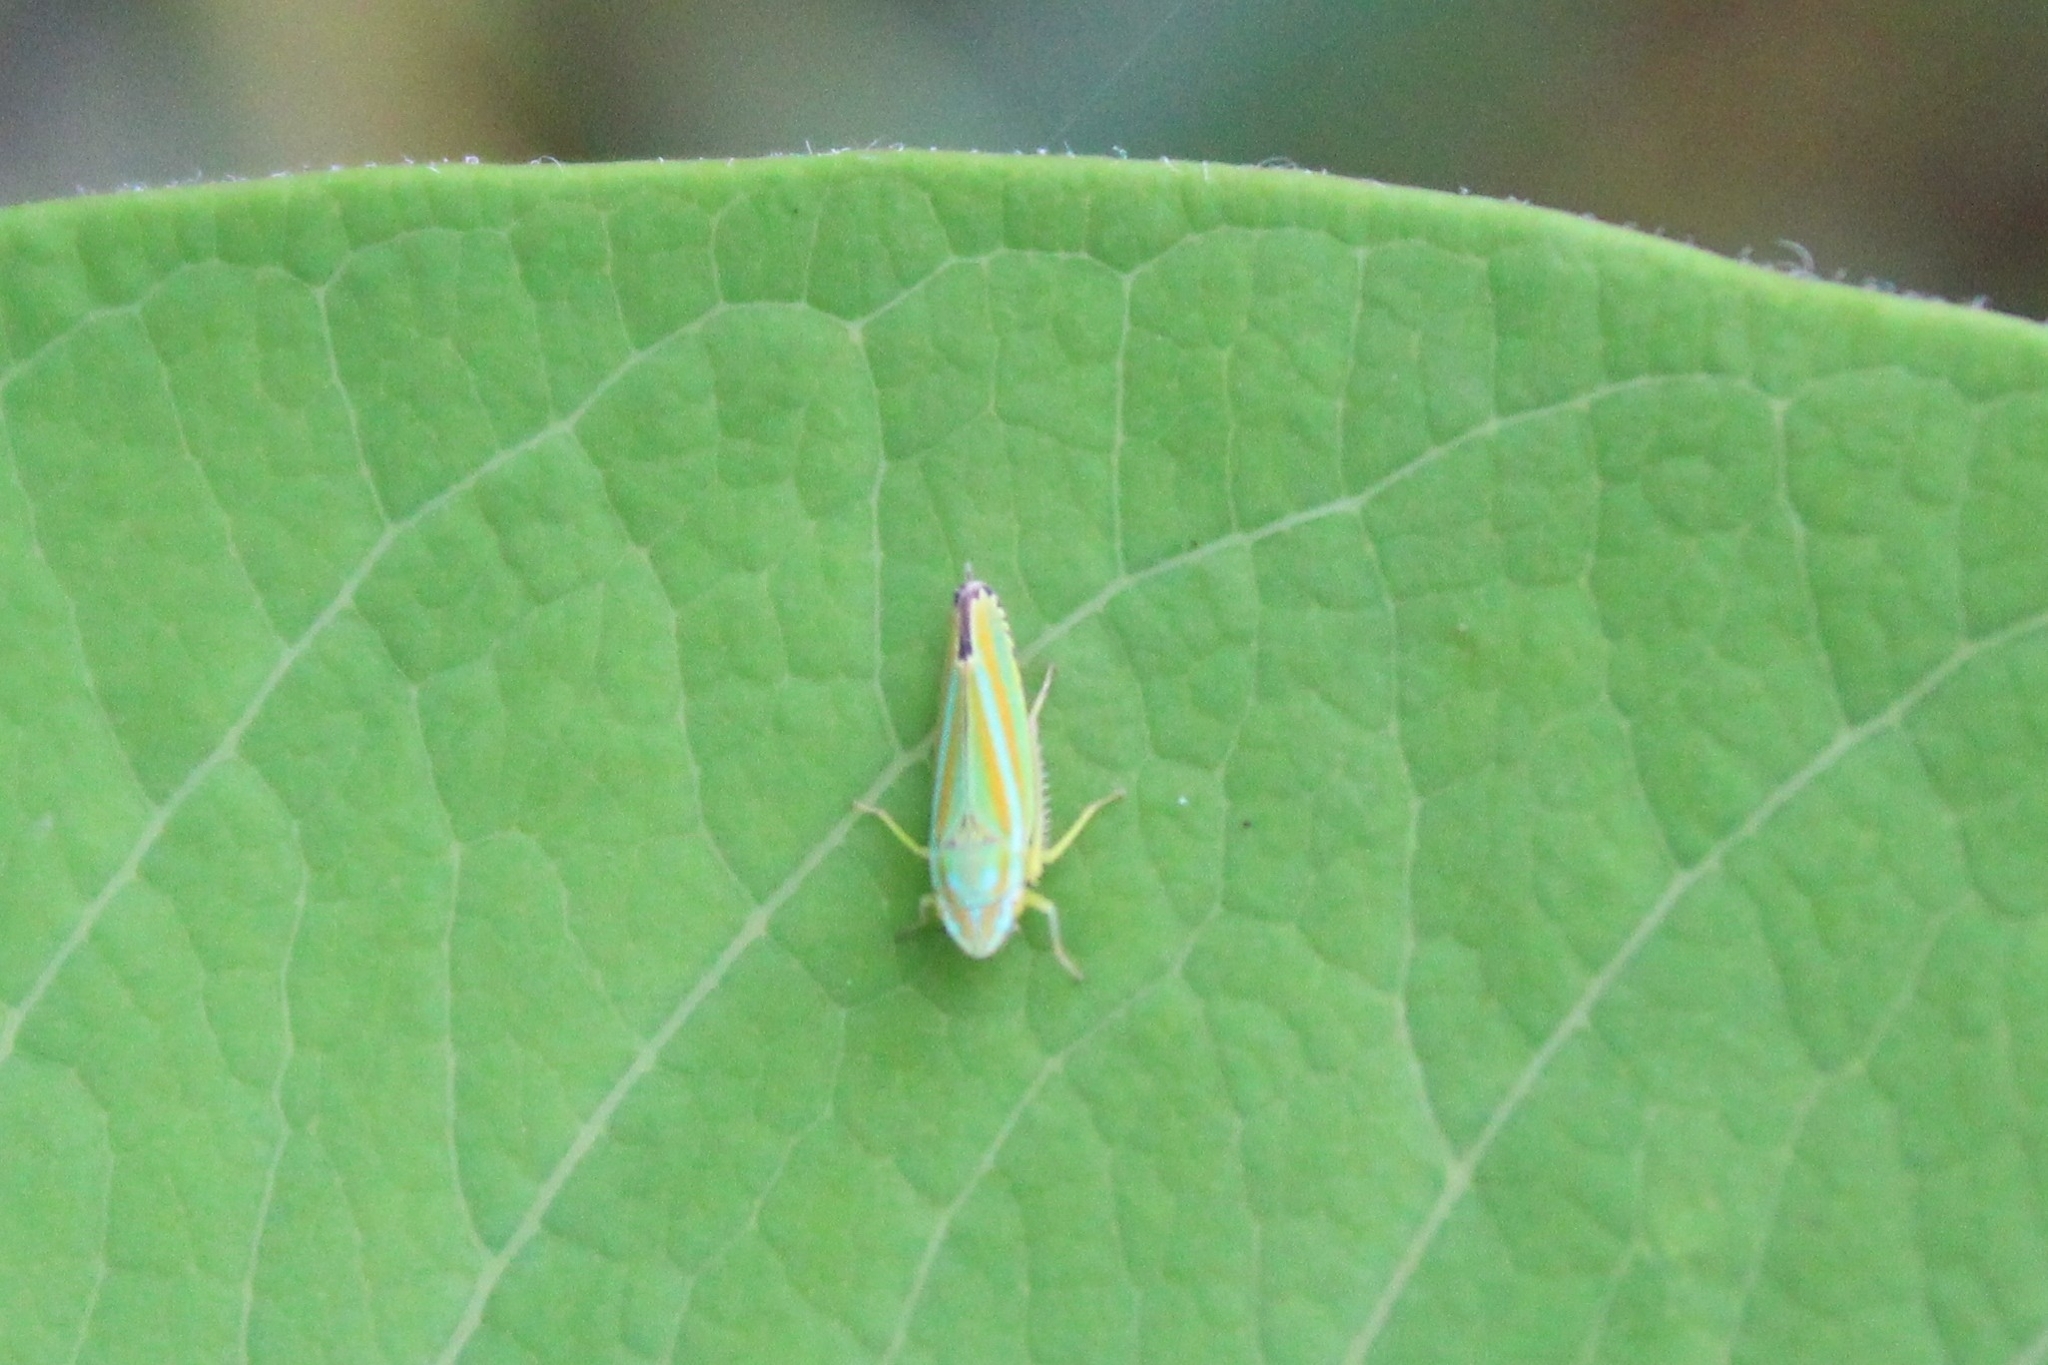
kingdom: Animalia
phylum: Arthropoda
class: Insecta
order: Hemiptera
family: Cicadellidae
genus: Graphocephala
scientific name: Graphocephala versuta
